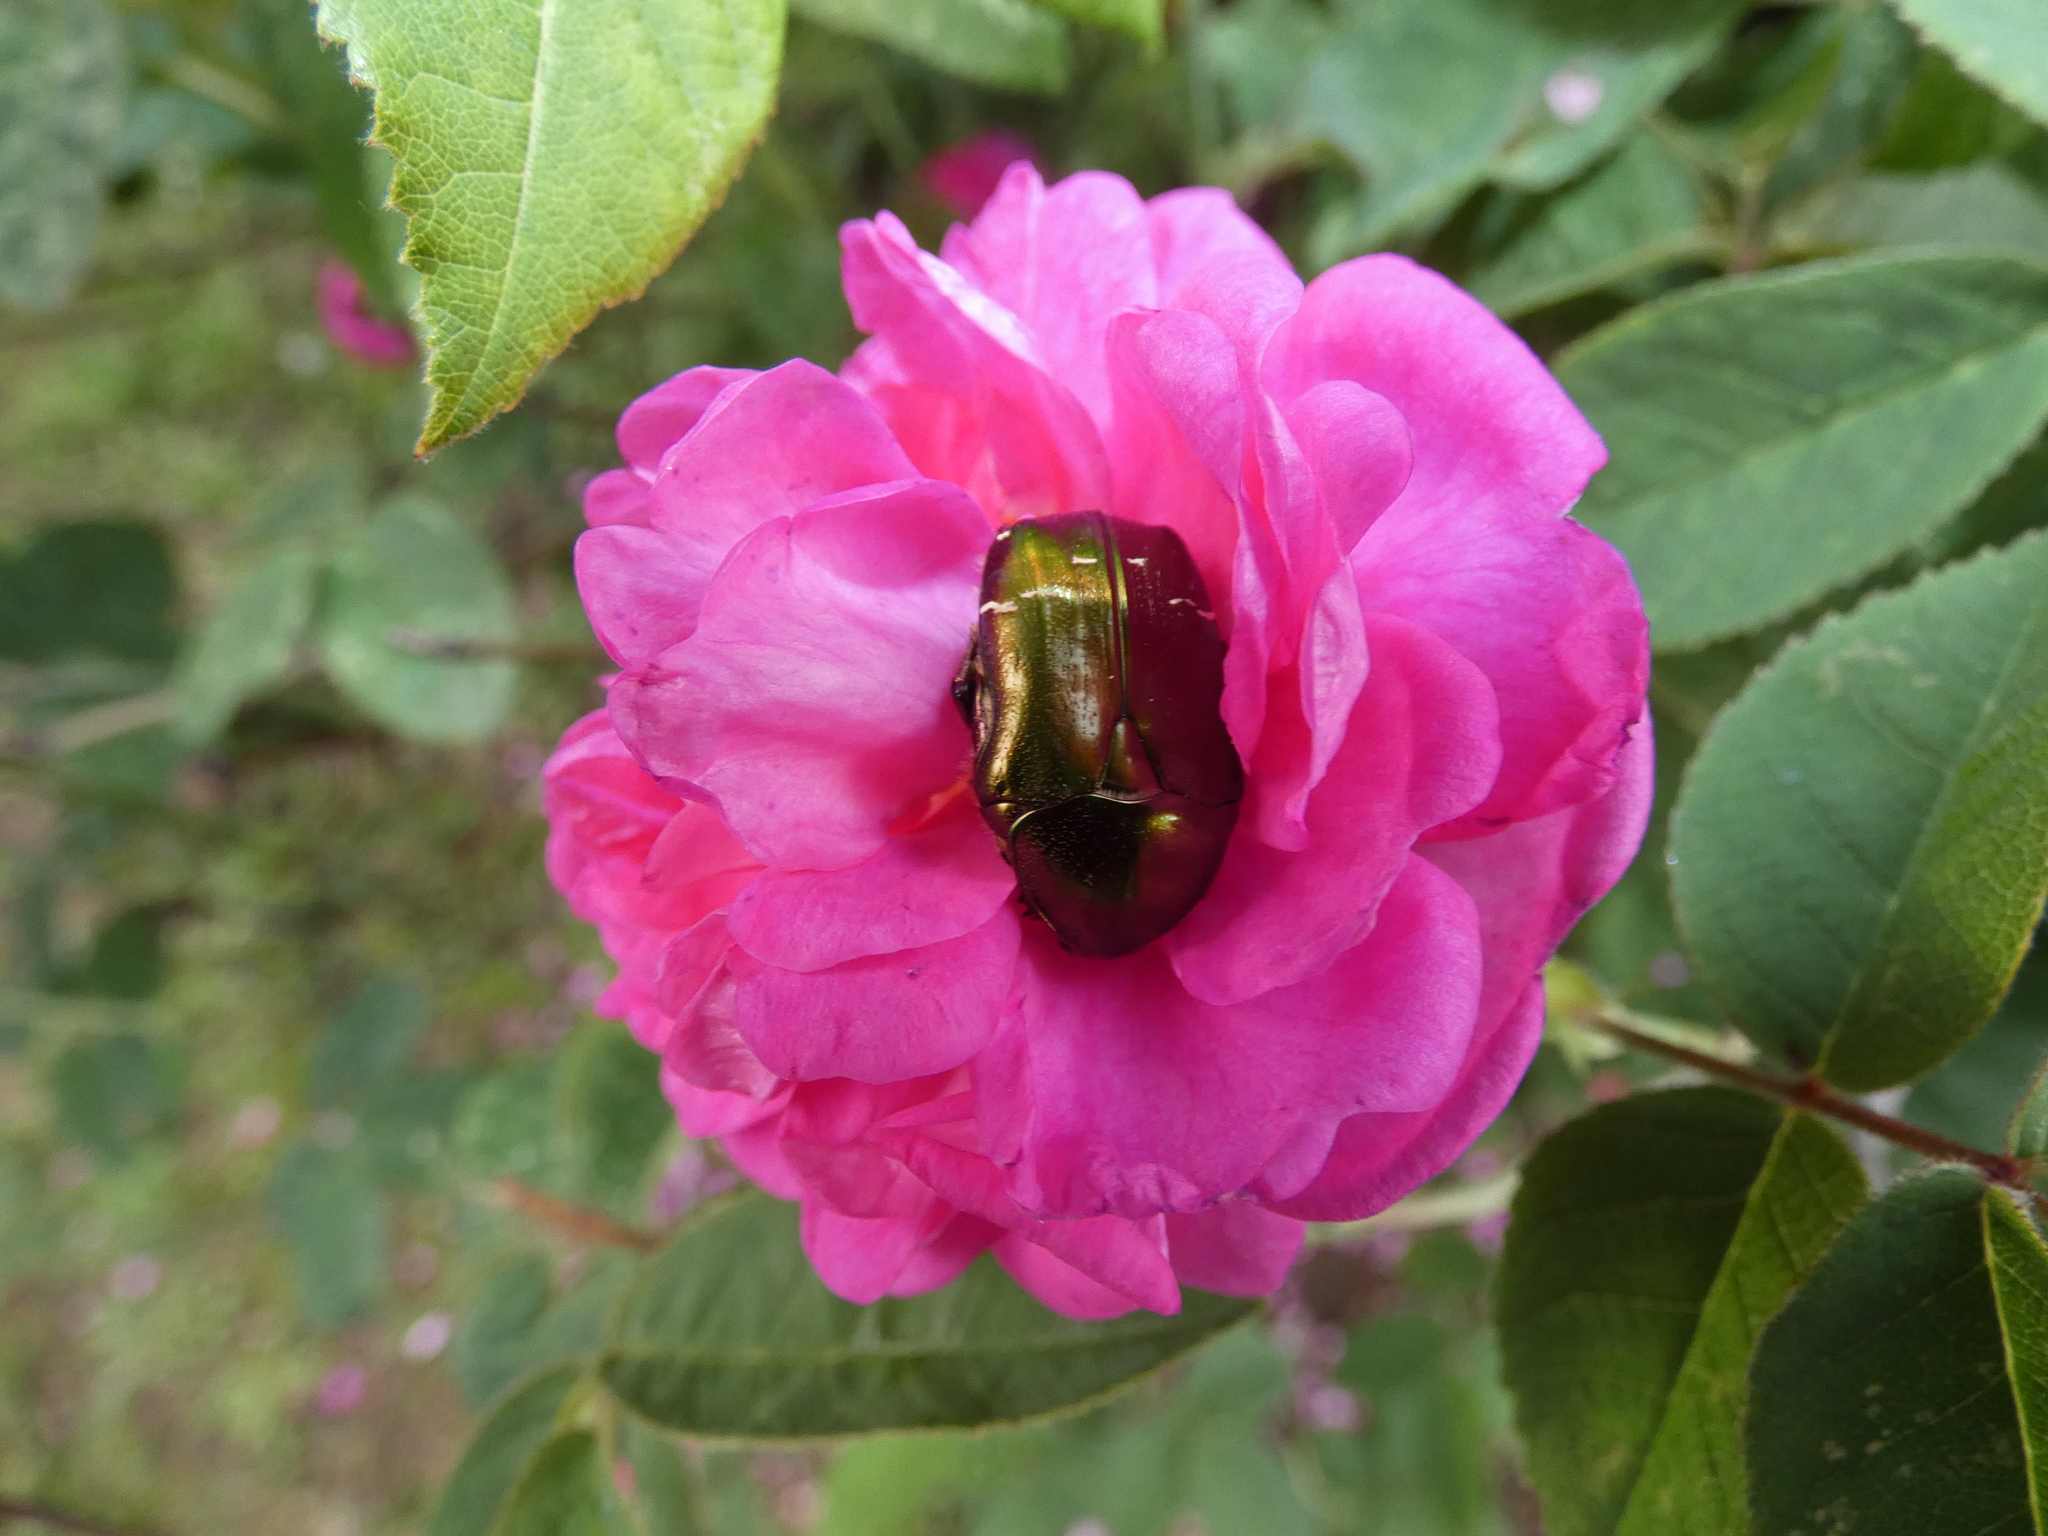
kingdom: Animalia
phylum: Arthropoda
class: Insecta
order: Coleoptera
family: Scarabaeidae
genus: Cetonia
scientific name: Cetonia aurata
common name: Rose chafer
